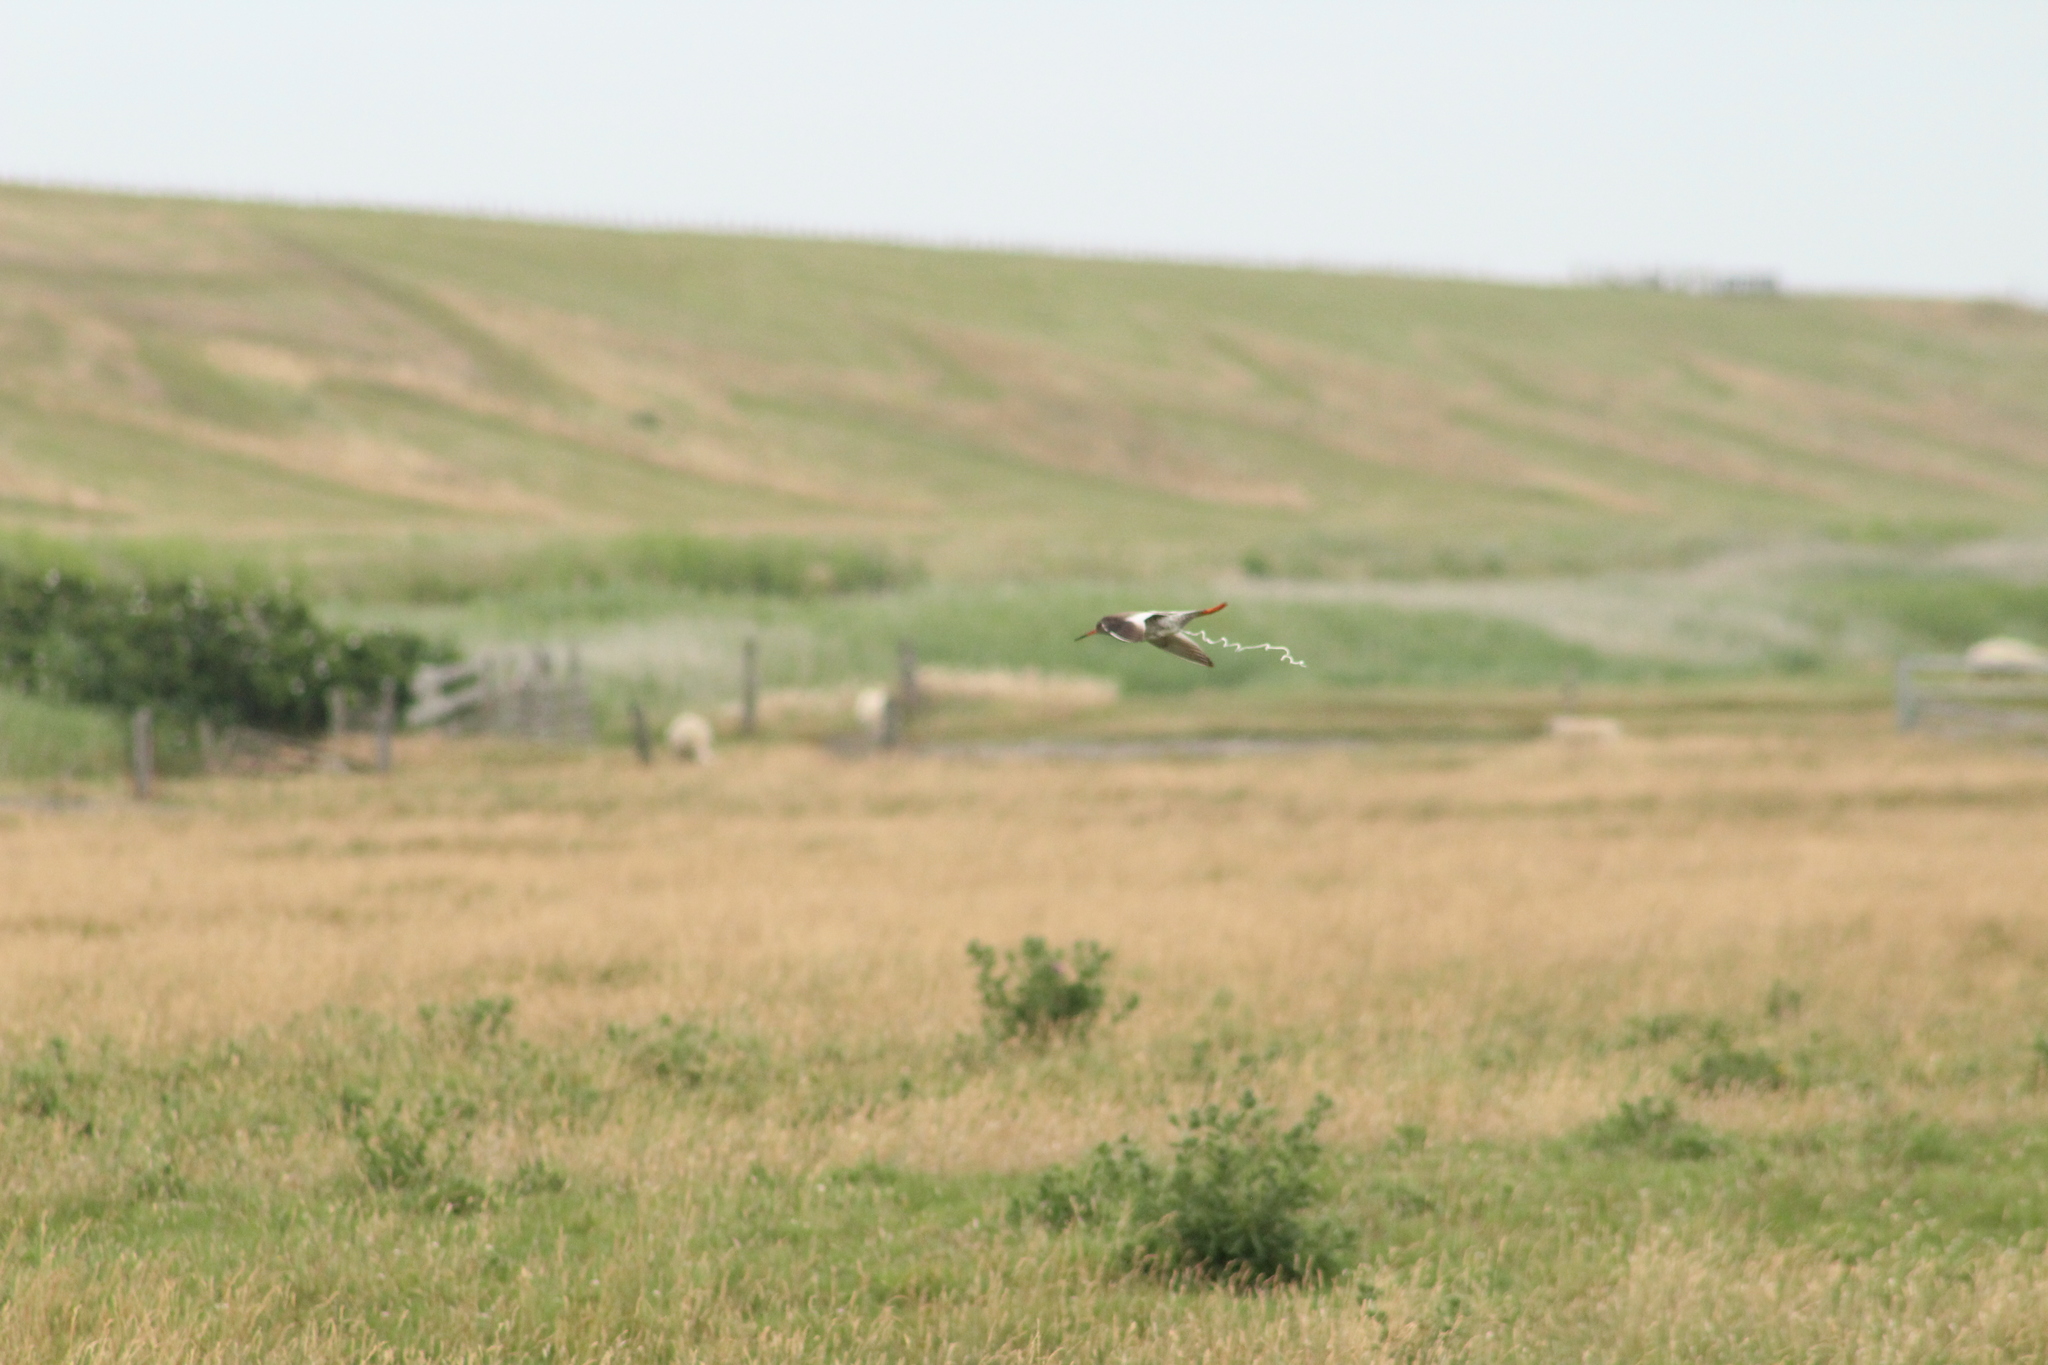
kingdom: Animalia
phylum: Chordata
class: Aves
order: Charadriiformes
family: Scolopacidae
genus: Tringa
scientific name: Tringa totanus
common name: Common redshank
